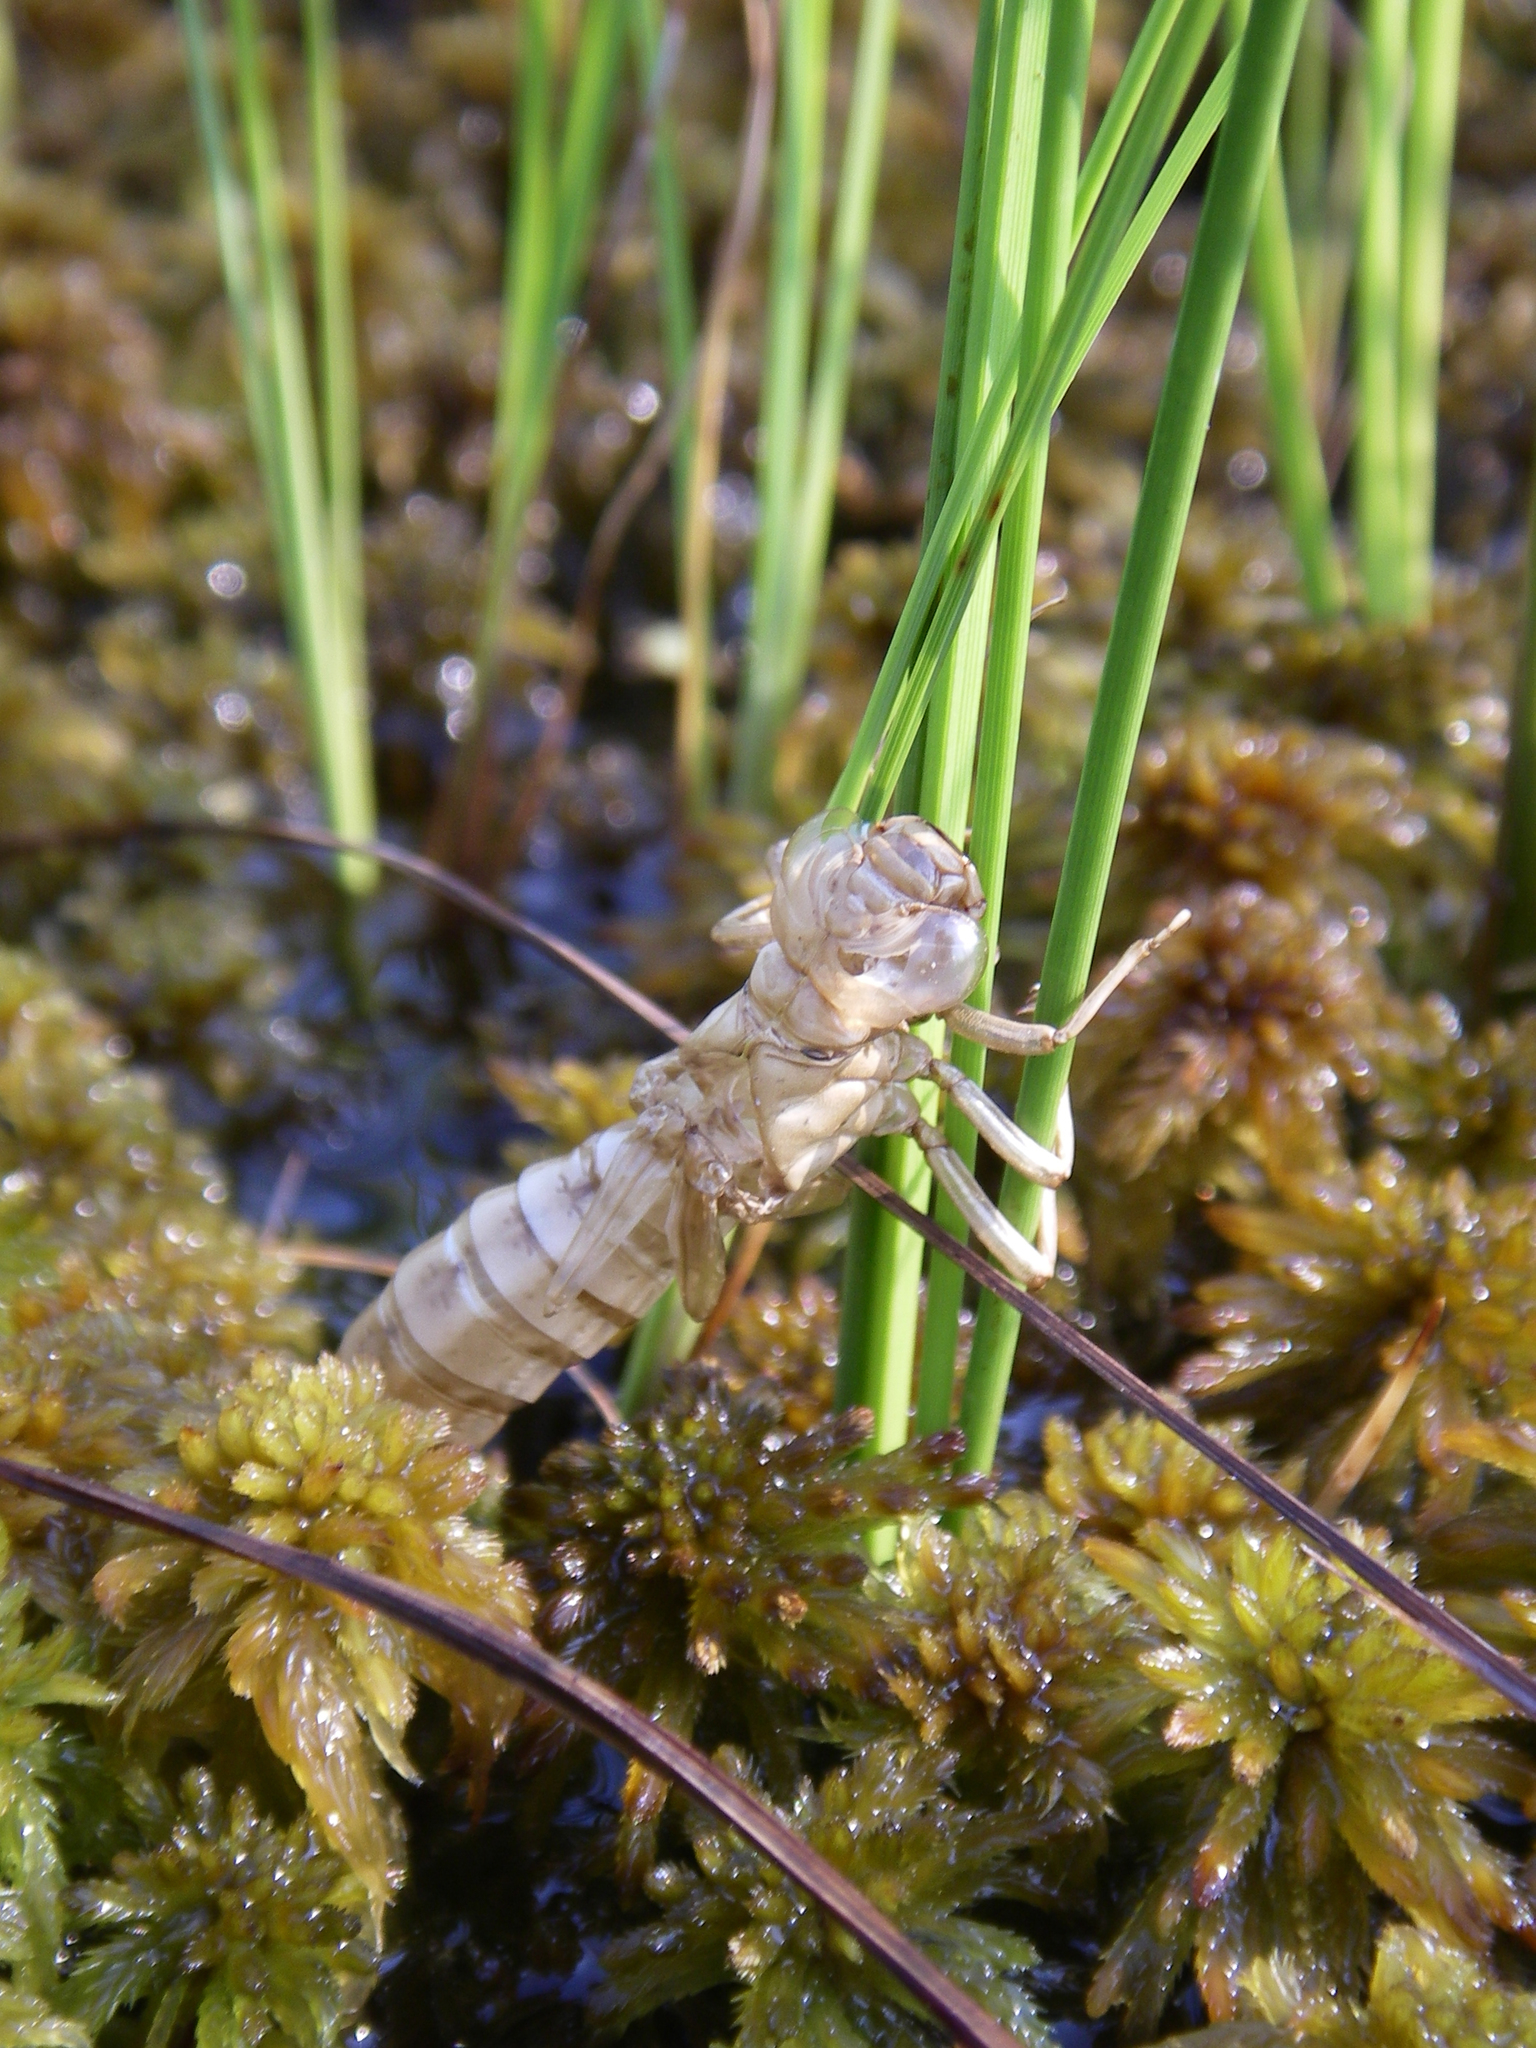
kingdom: Plantae
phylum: Bryophyta
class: Sphagnopsida
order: Sphagnales
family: Sphagnaceae
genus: Sphagnum
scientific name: Sphagnum lindbergii
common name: Lindberg's peat moss
